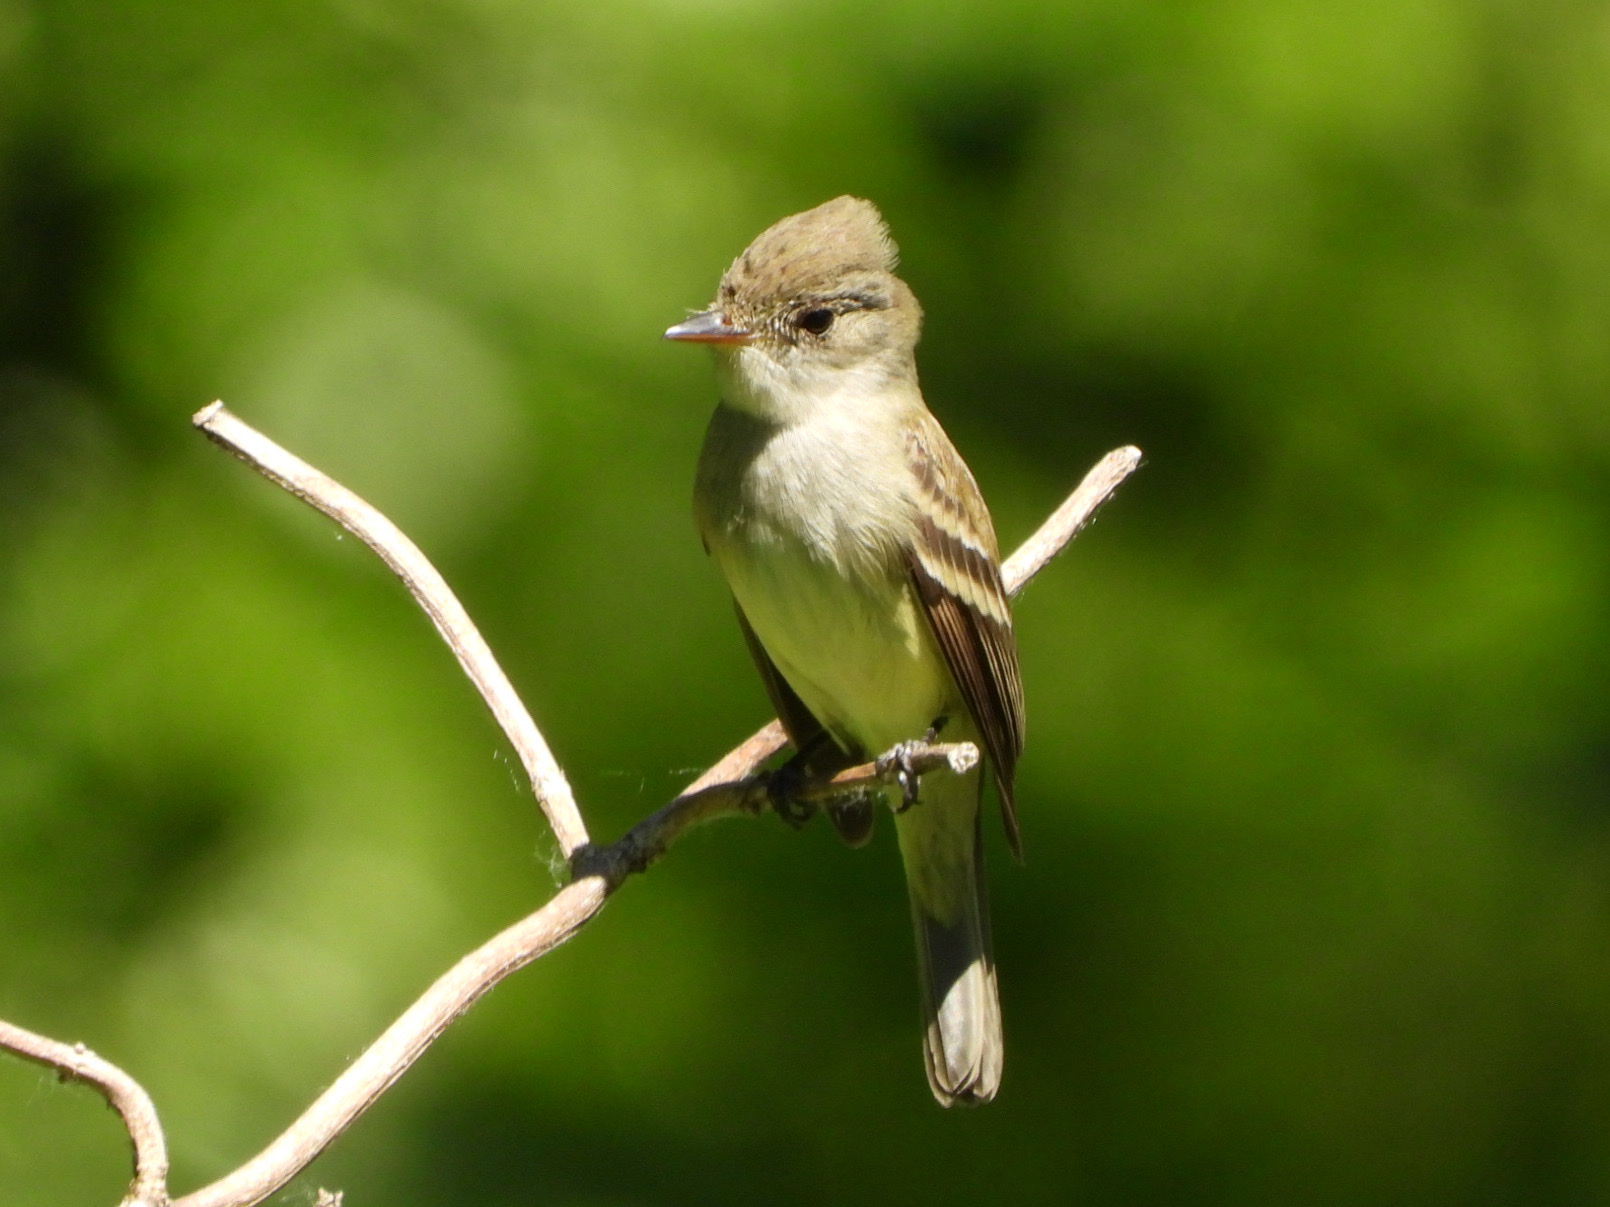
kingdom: Animalia
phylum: Chordata
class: Aves
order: Passeriformes
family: Tyrannidae
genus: Empidonax
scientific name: Empidonax traillii
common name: Willow flycatcher
